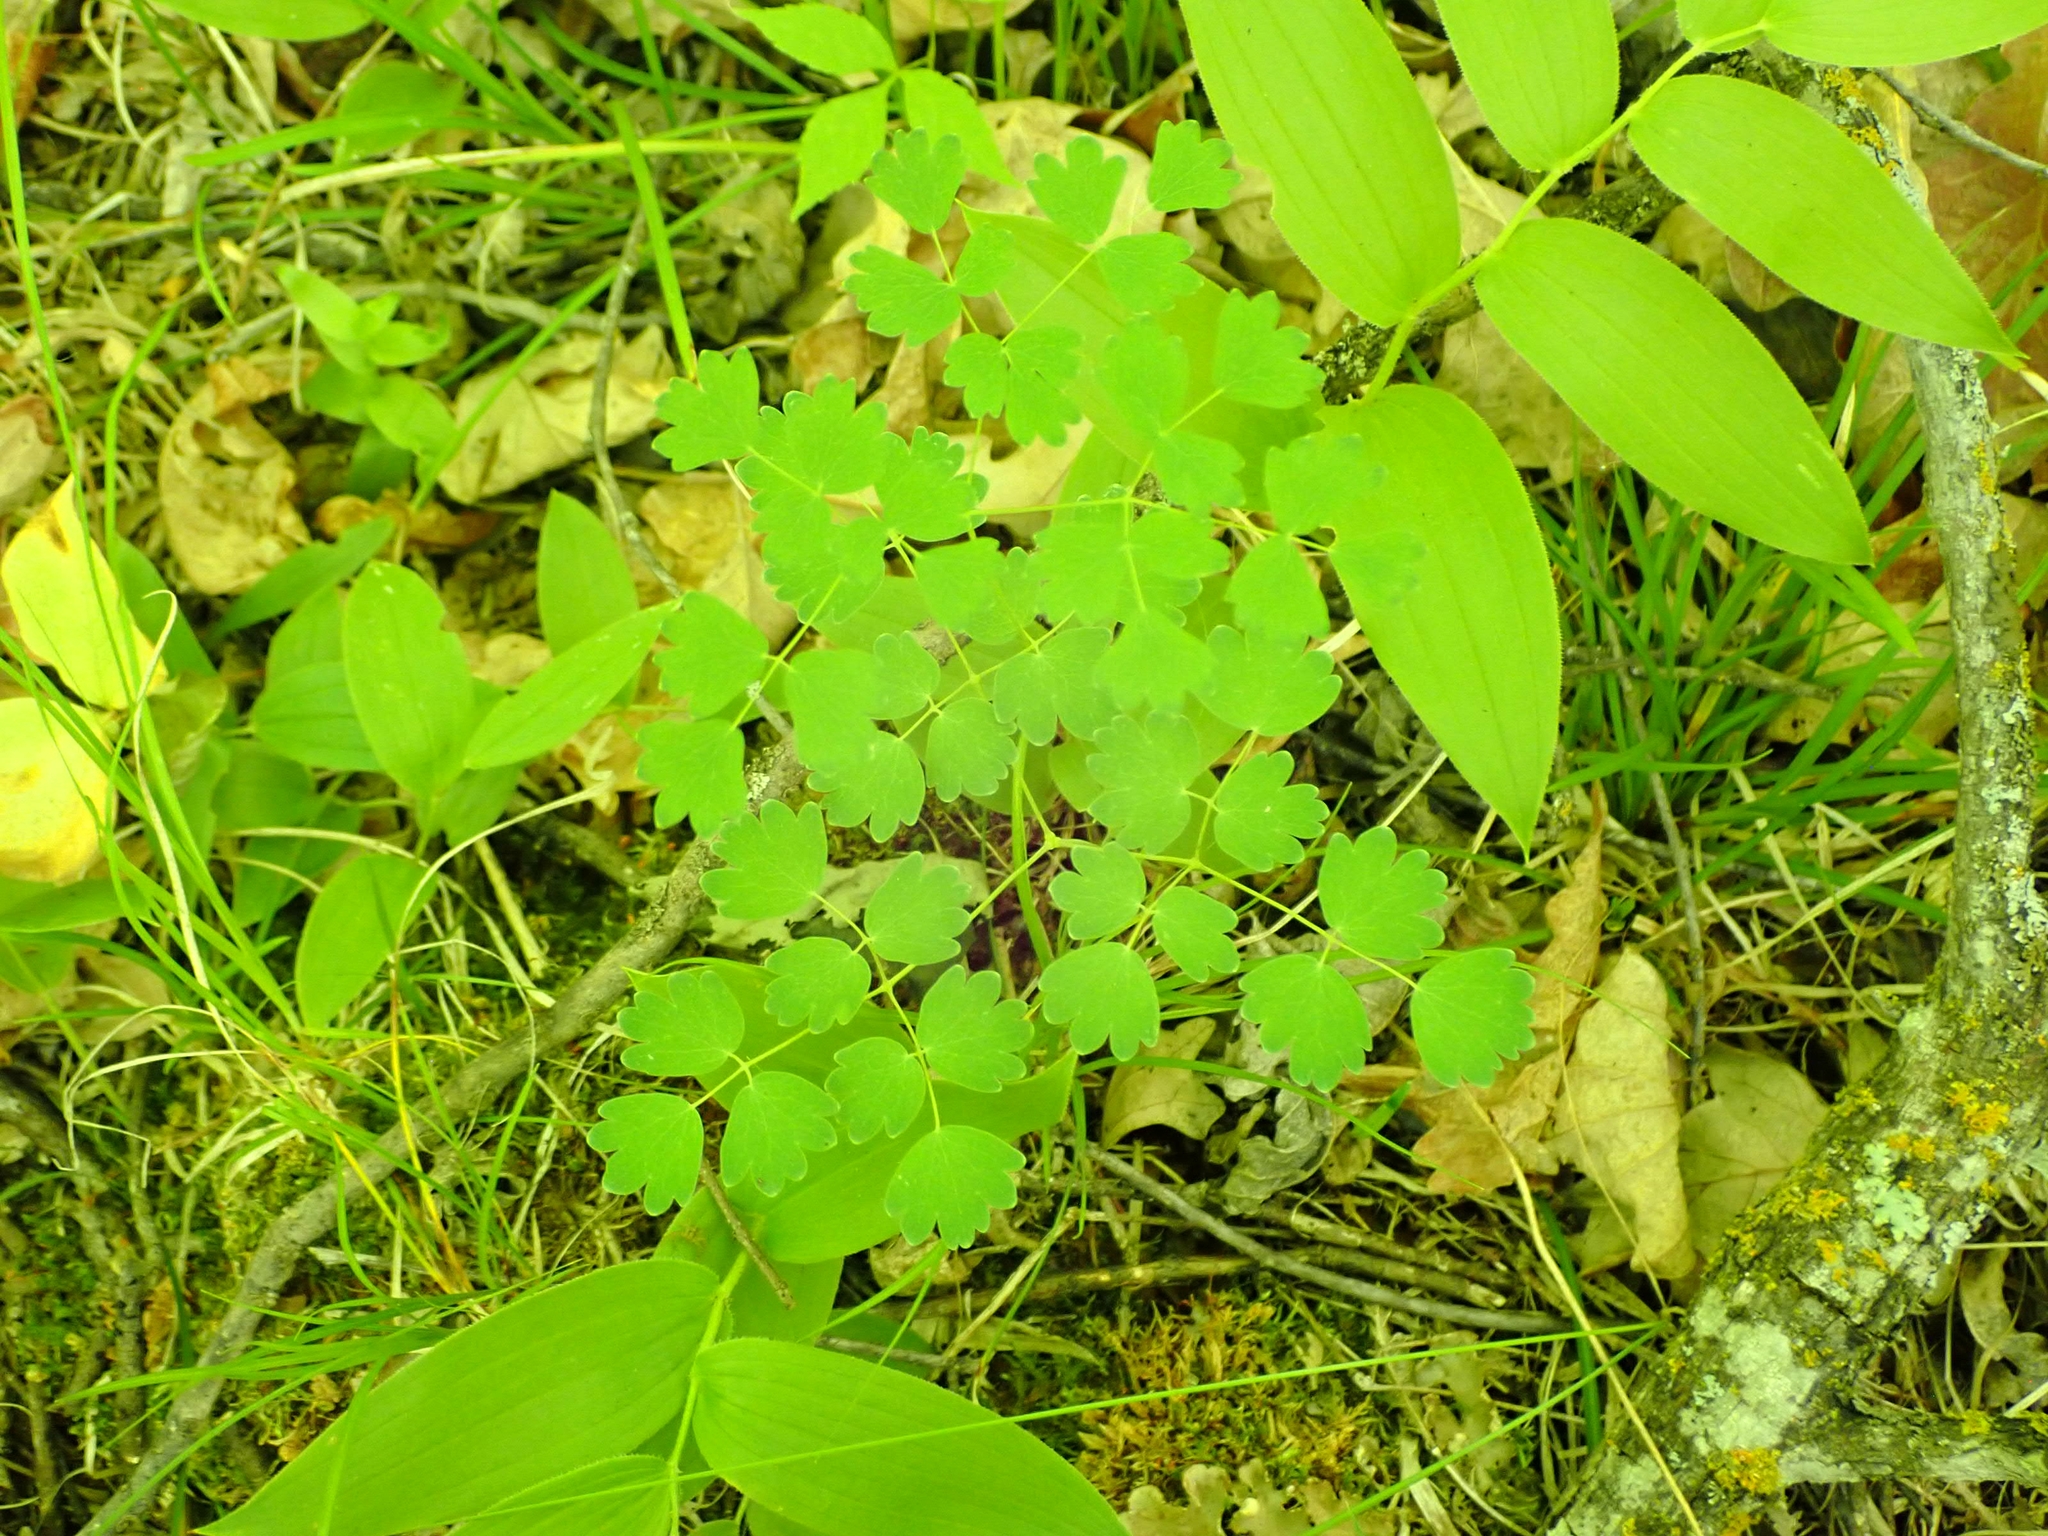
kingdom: Plantae
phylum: Tracheophyta
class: Magnoliopsida
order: Ranunculales
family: Ranunculaceae
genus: Thalictrum
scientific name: Thalictrum venulosum
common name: Early meadow-rue
